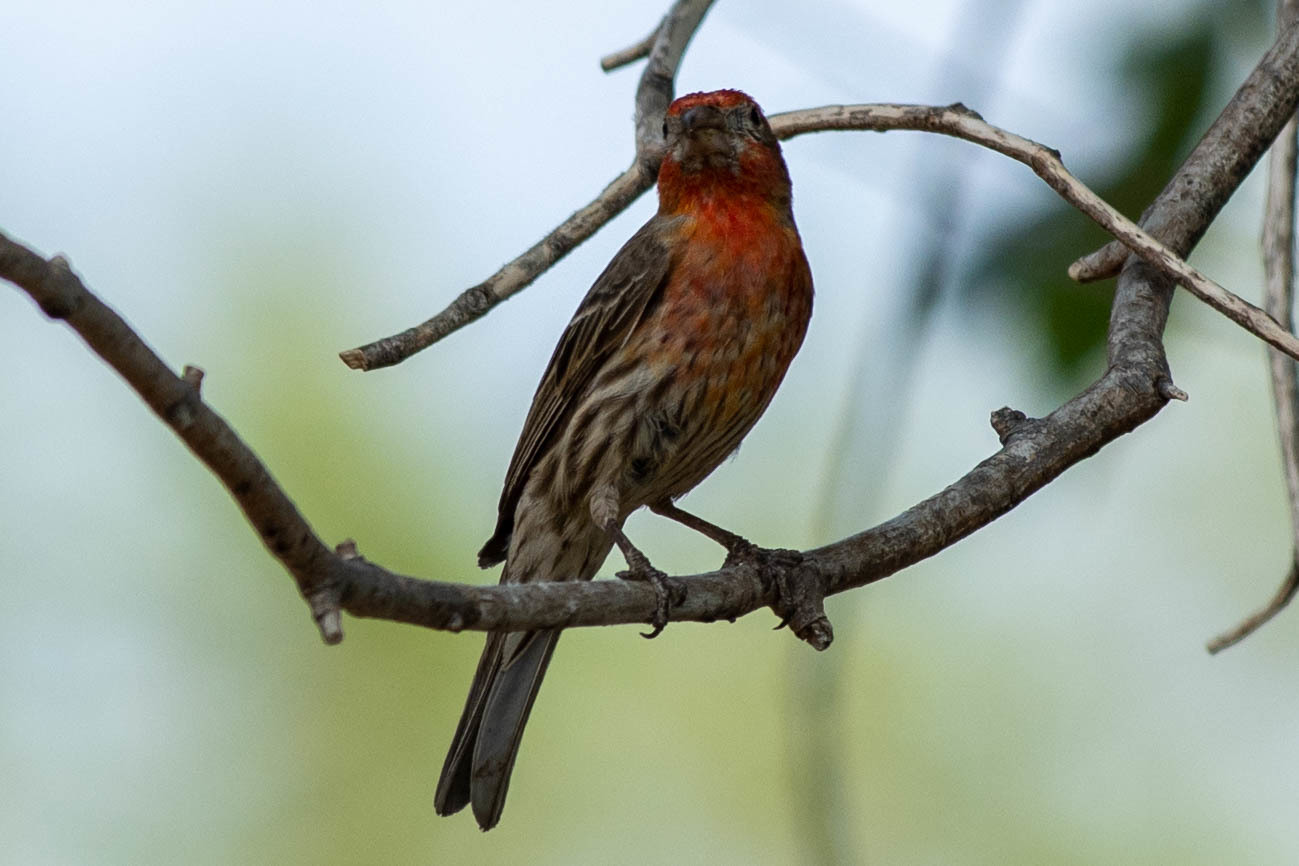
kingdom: Animalia
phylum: Chordata
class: Aves
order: Passeriformes
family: Fringillidae
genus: Haemorhous
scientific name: Haemorhous mexicanus
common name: House finch
